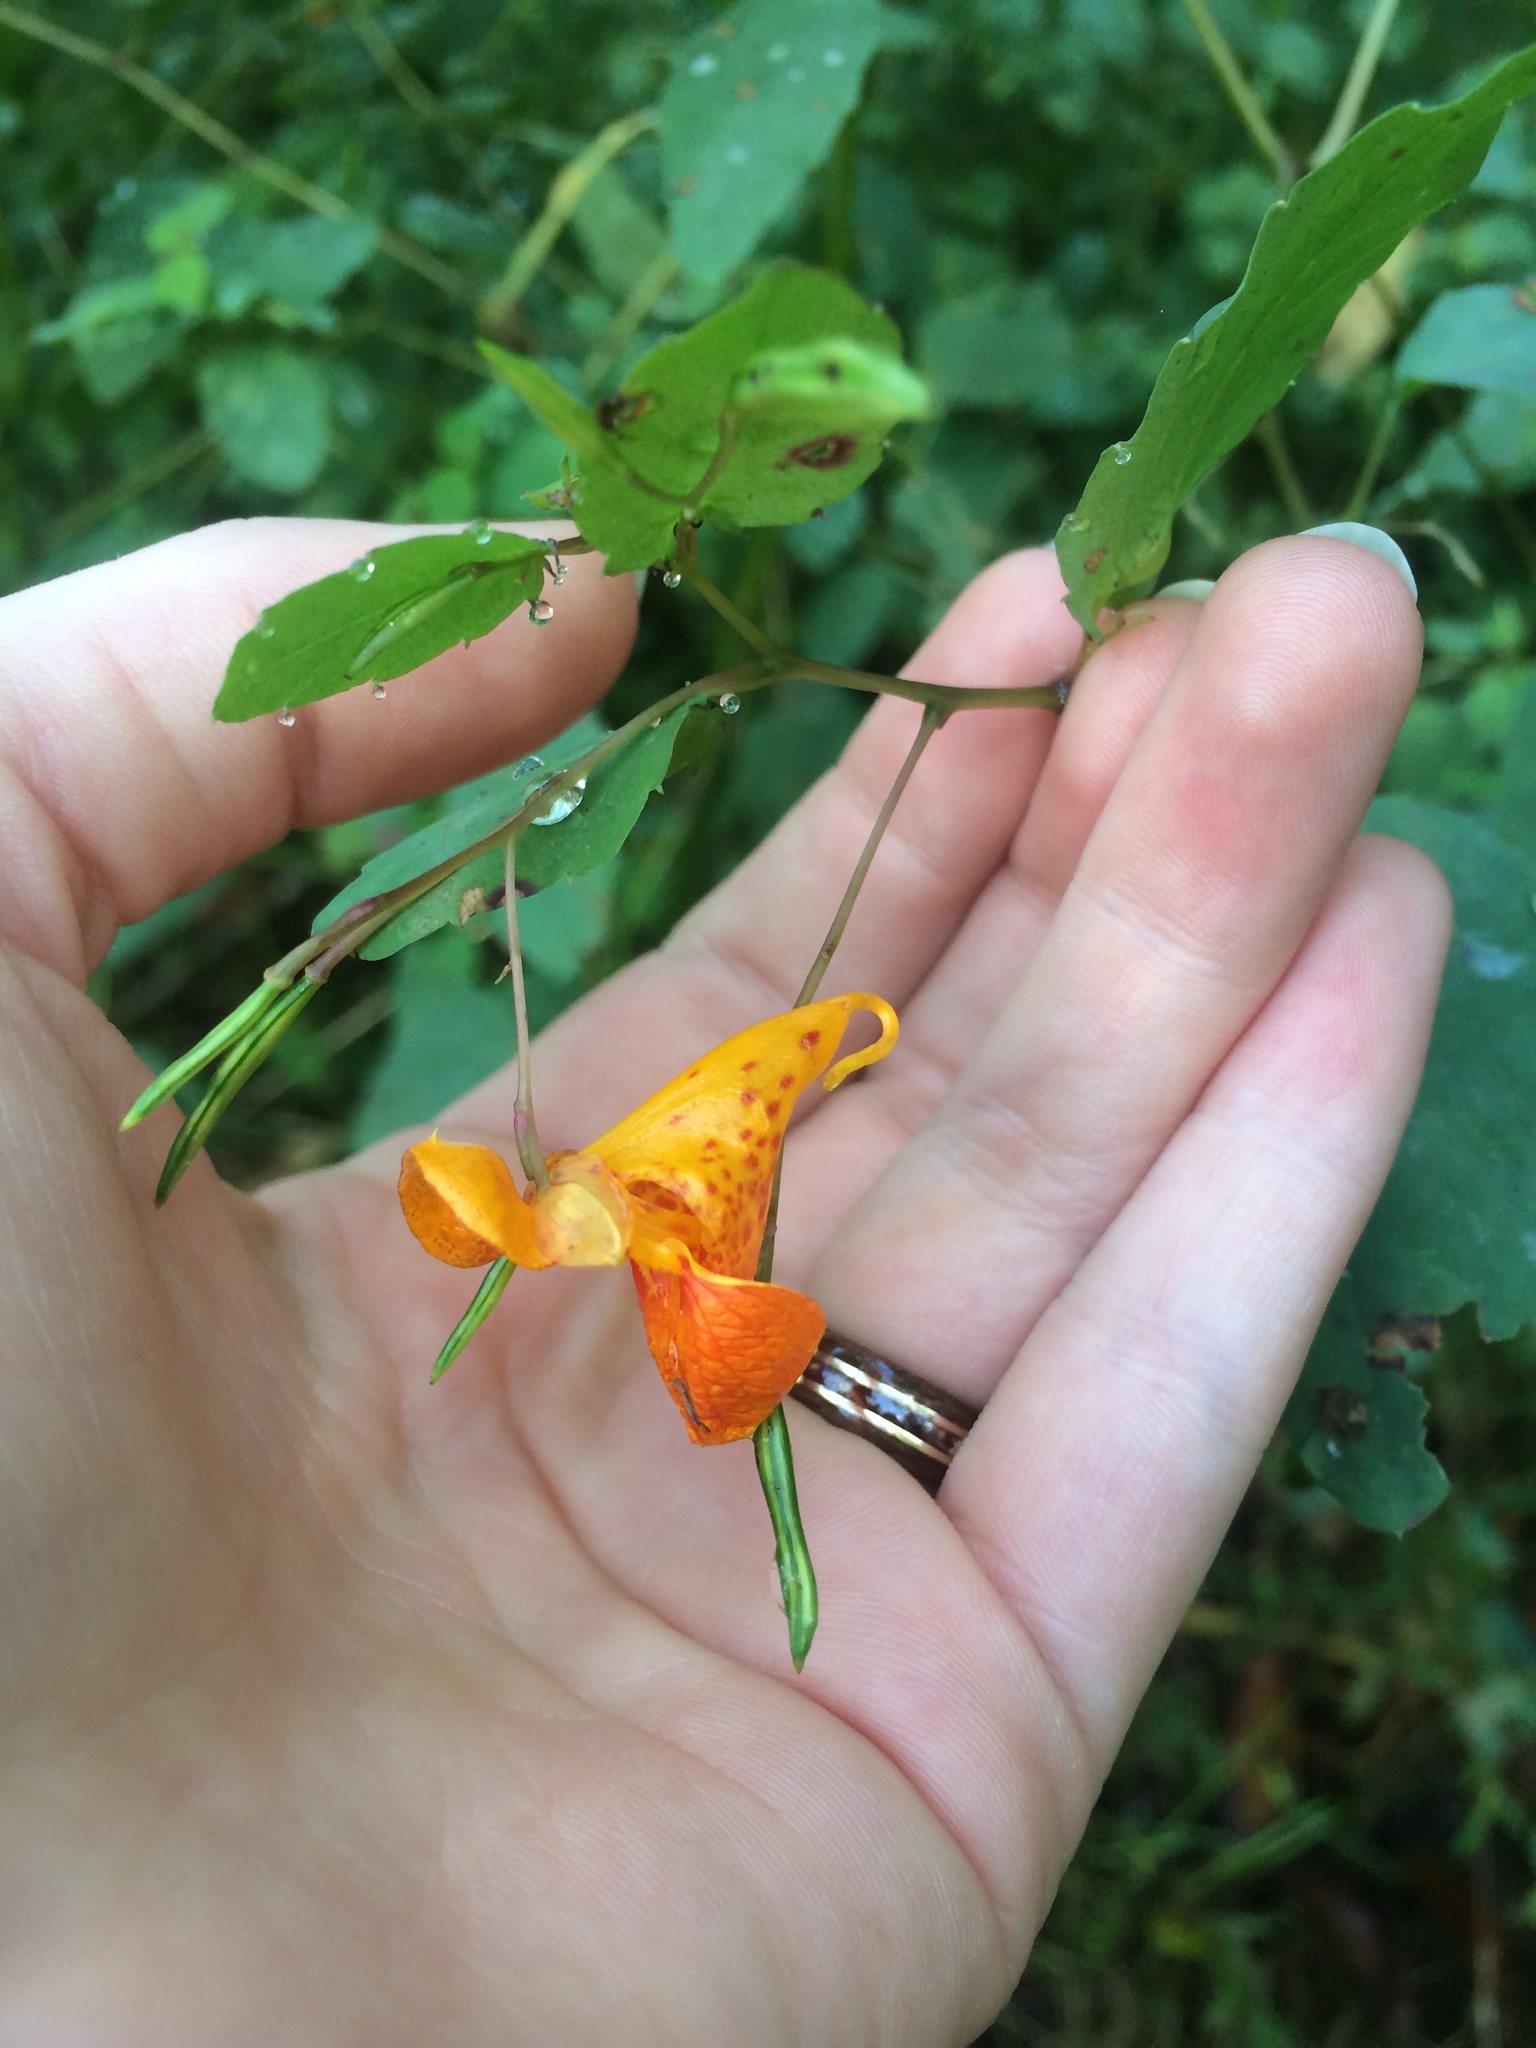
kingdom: Plantae
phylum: Tracheophyta
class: Magnoliopsida
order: Ericales
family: Balsaminaceae
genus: Impatiens
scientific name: Impatiens capensis
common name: Orange balsam
